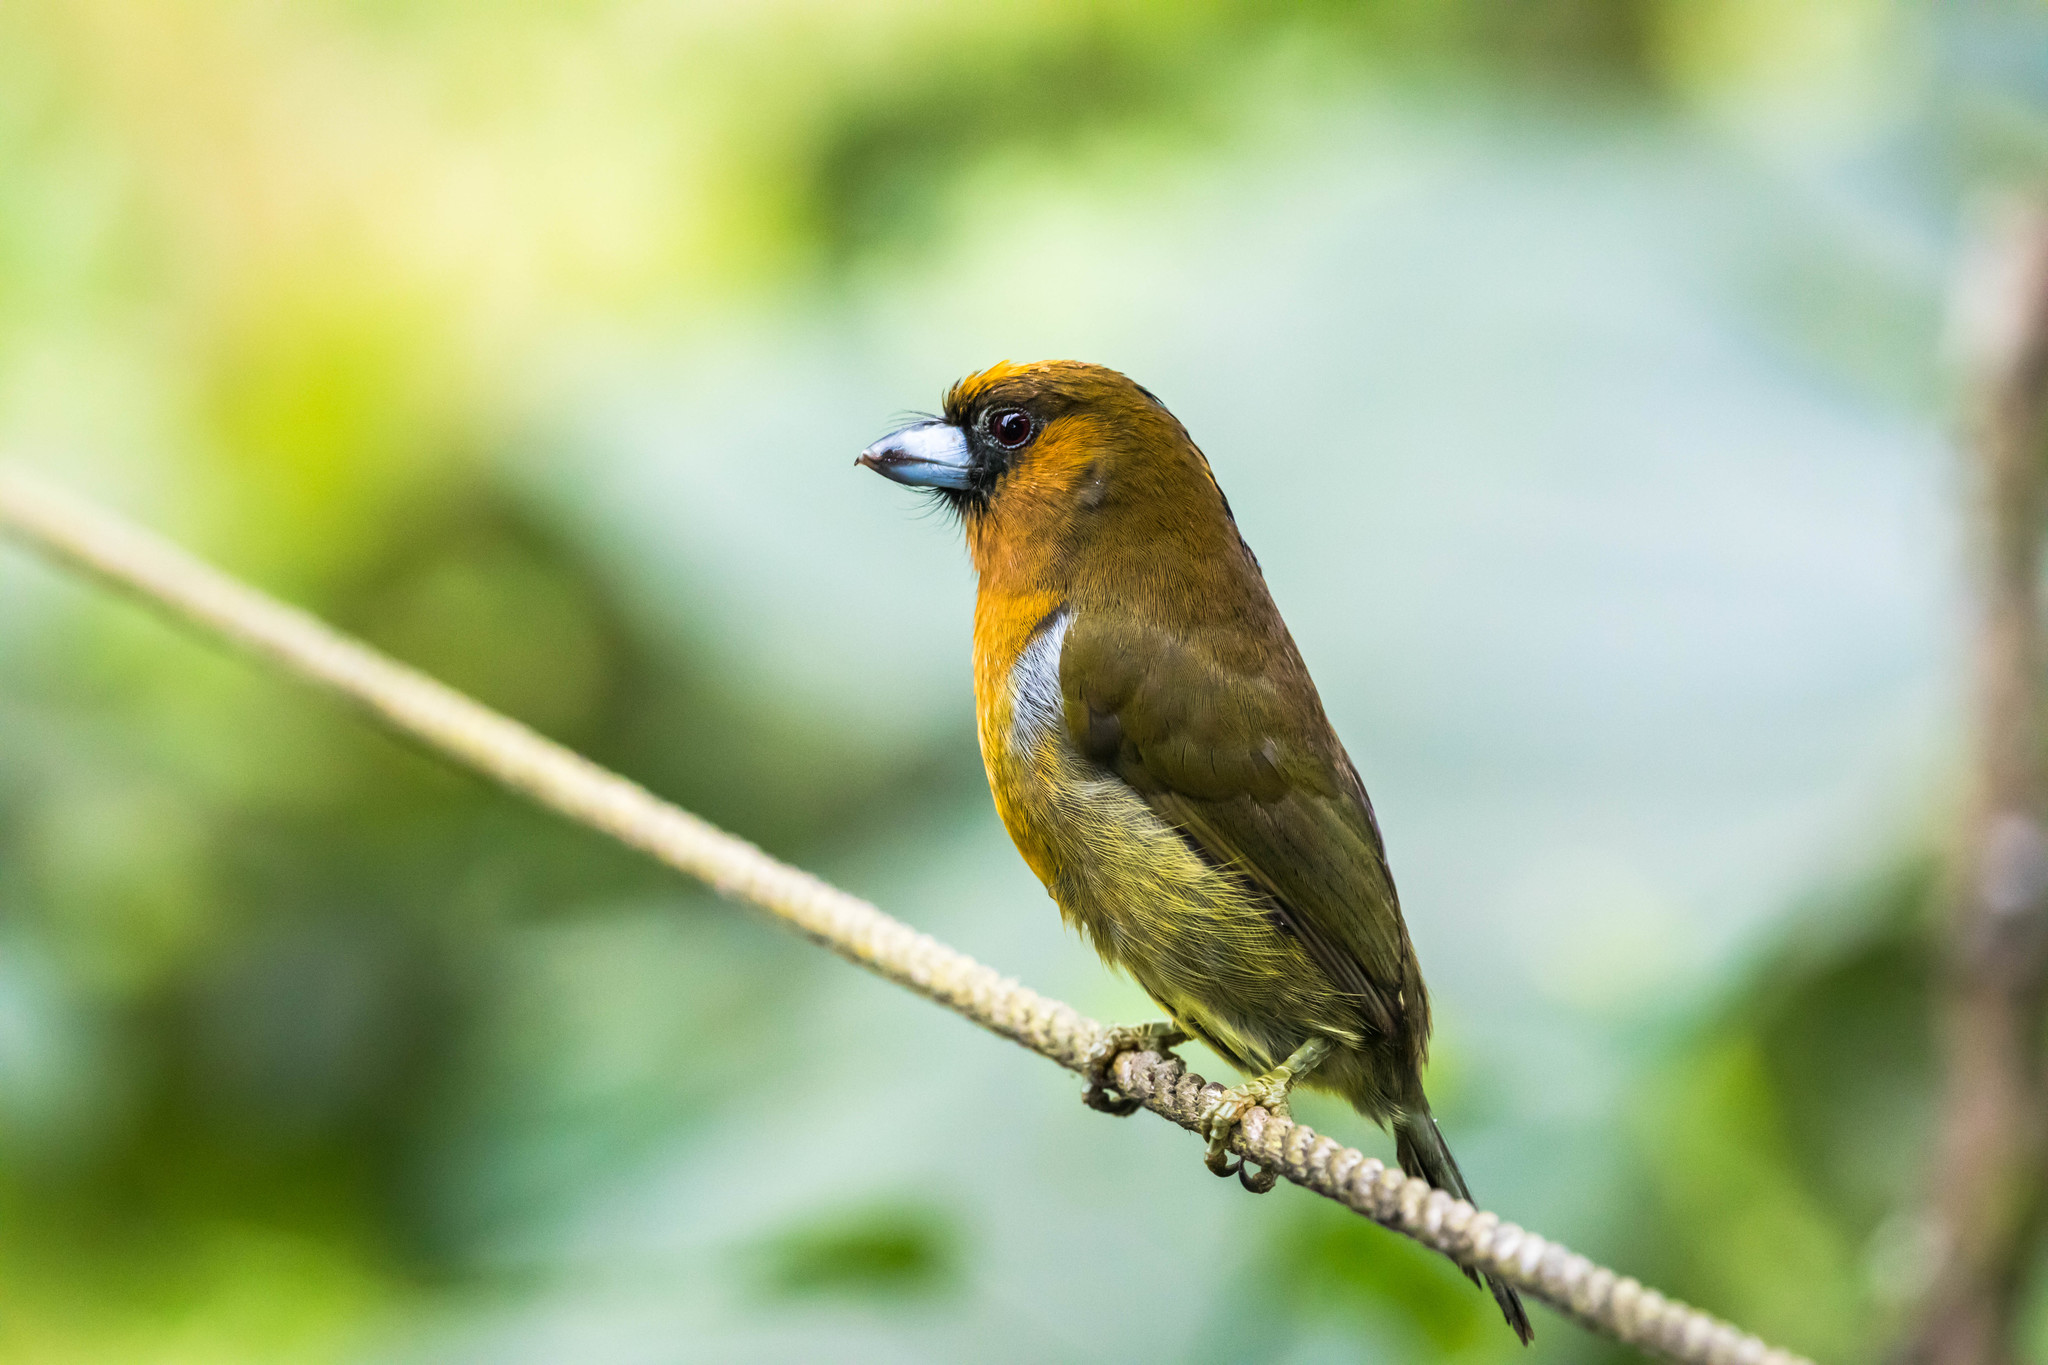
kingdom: Animalia
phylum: Chordata
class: Aves
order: Piciformes
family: Semnornithidae
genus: Semnornis
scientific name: Semnornis frantzii
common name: Prong-billed barbet
